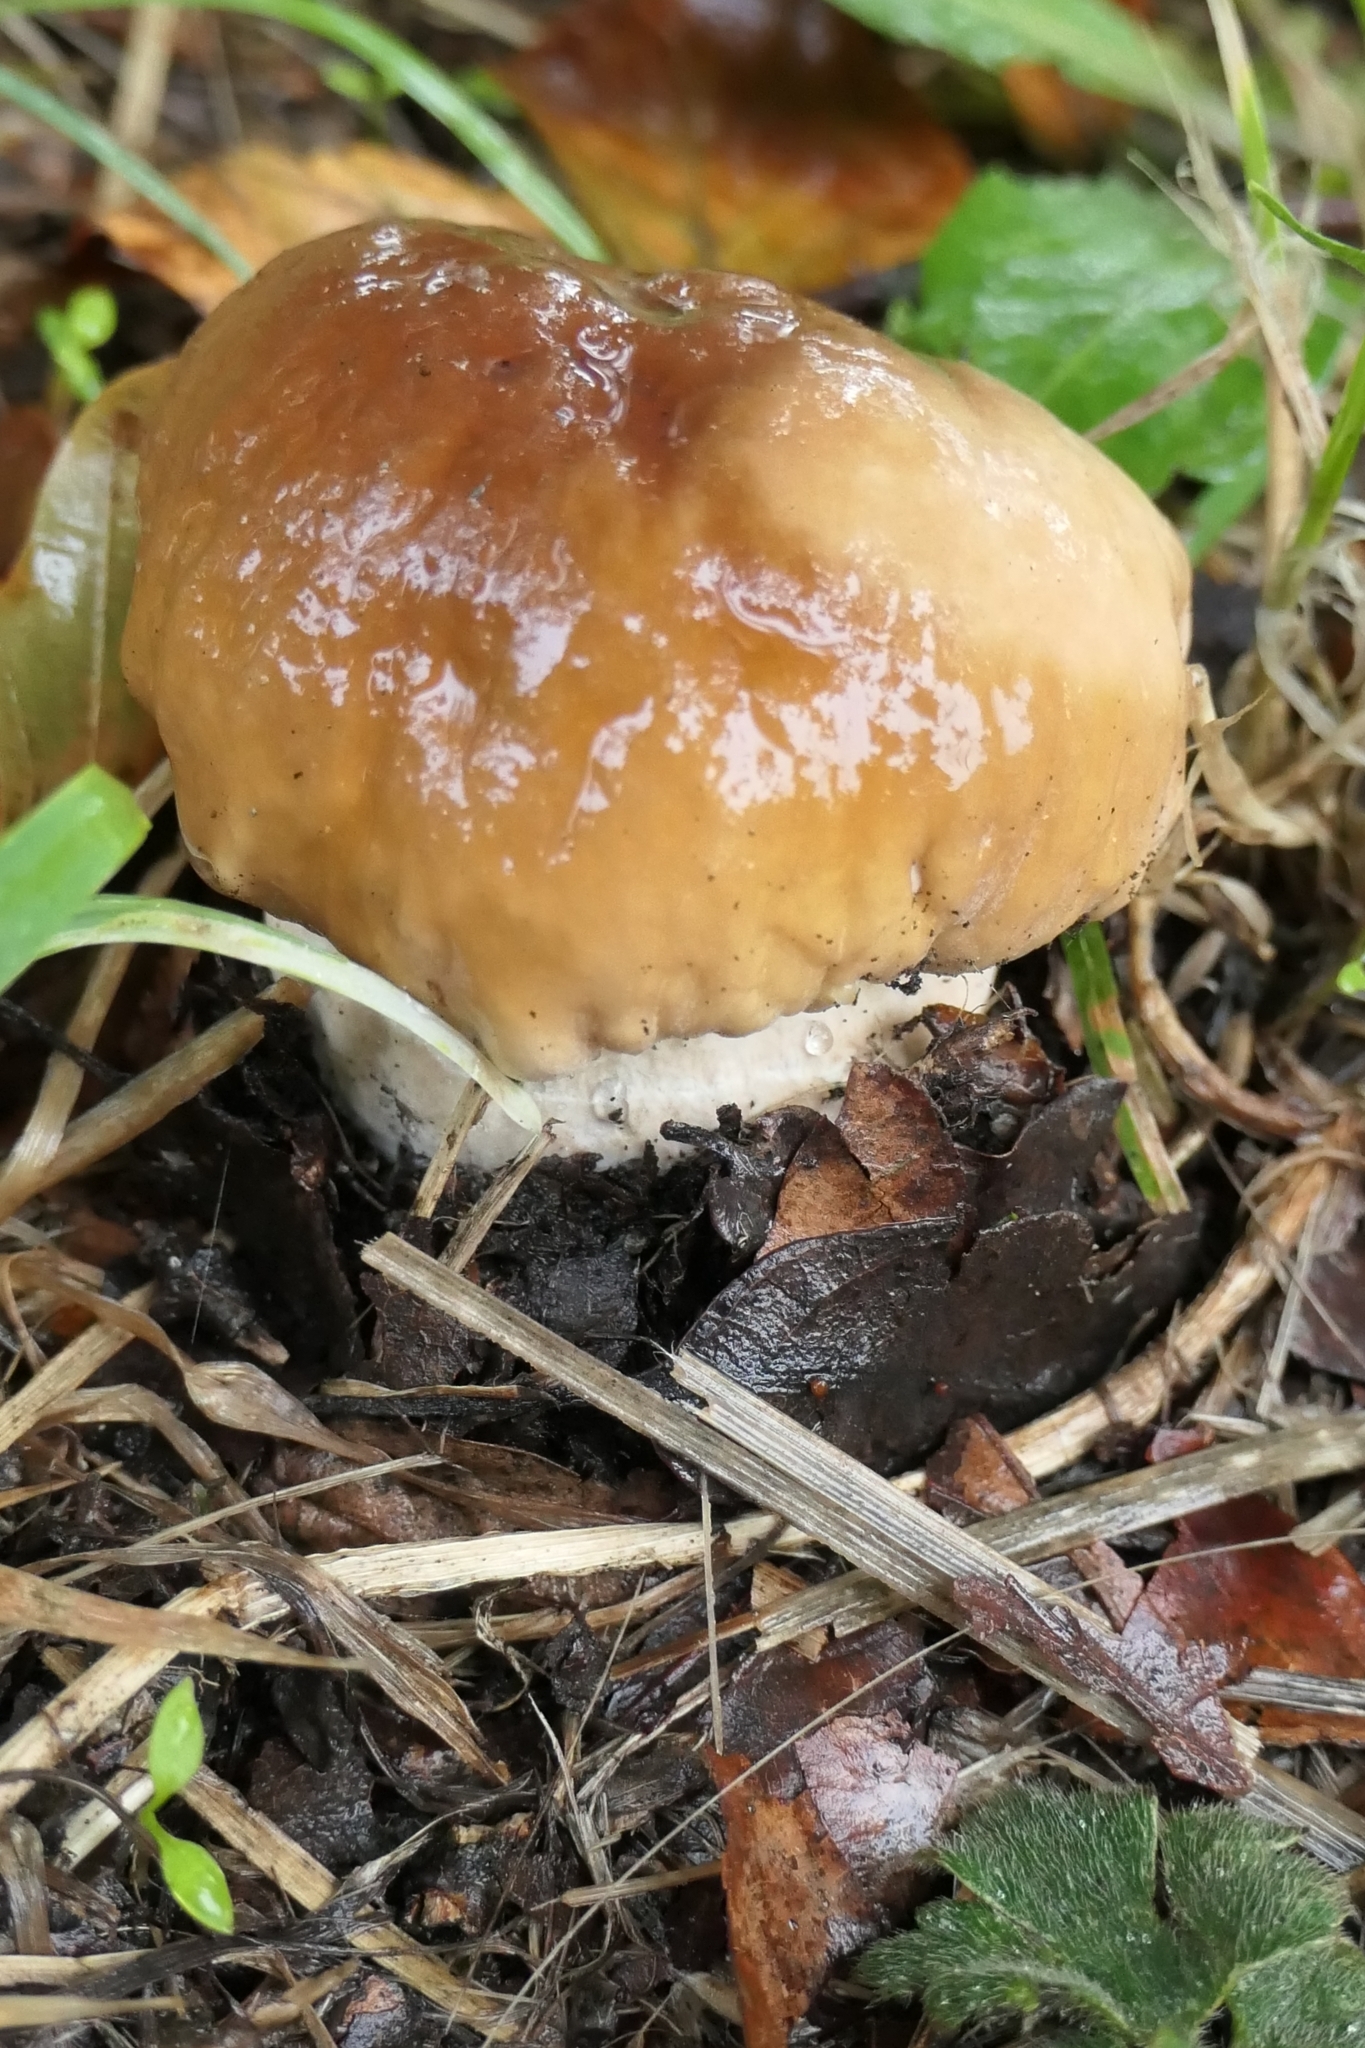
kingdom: Fungi
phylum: Basidiomycota
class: Agaricomycetes
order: Boletales
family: Boletaceae
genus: Boletus
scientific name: Boletus edulis
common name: Cep
